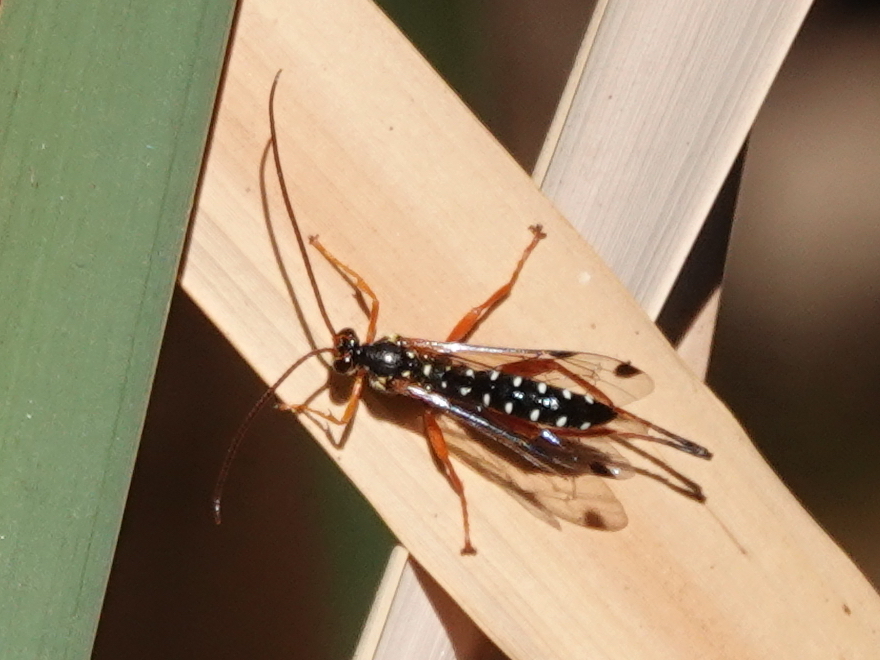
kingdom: Animalia
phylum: Arthropoda
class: Insecta
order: Hymenoptera
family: Ichneumonidae
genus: Echthromorpha
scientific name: Echthromorpha intricatoria
